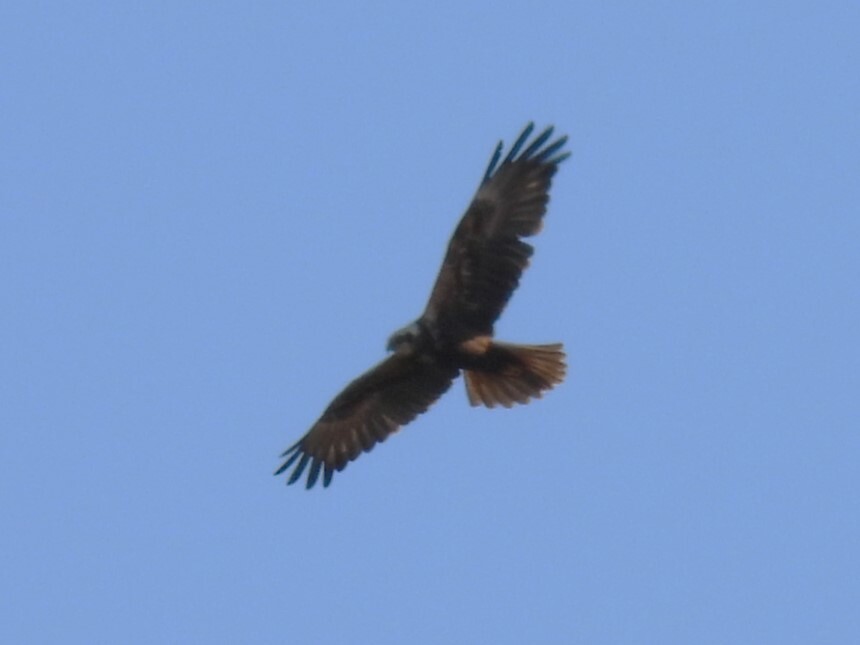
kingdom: Animalia
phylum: Chordata
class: Aves
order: Accipitriformes
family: Accipitridae
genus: Circus
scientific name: Circus aeruginosus
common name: Western marsh harrier
